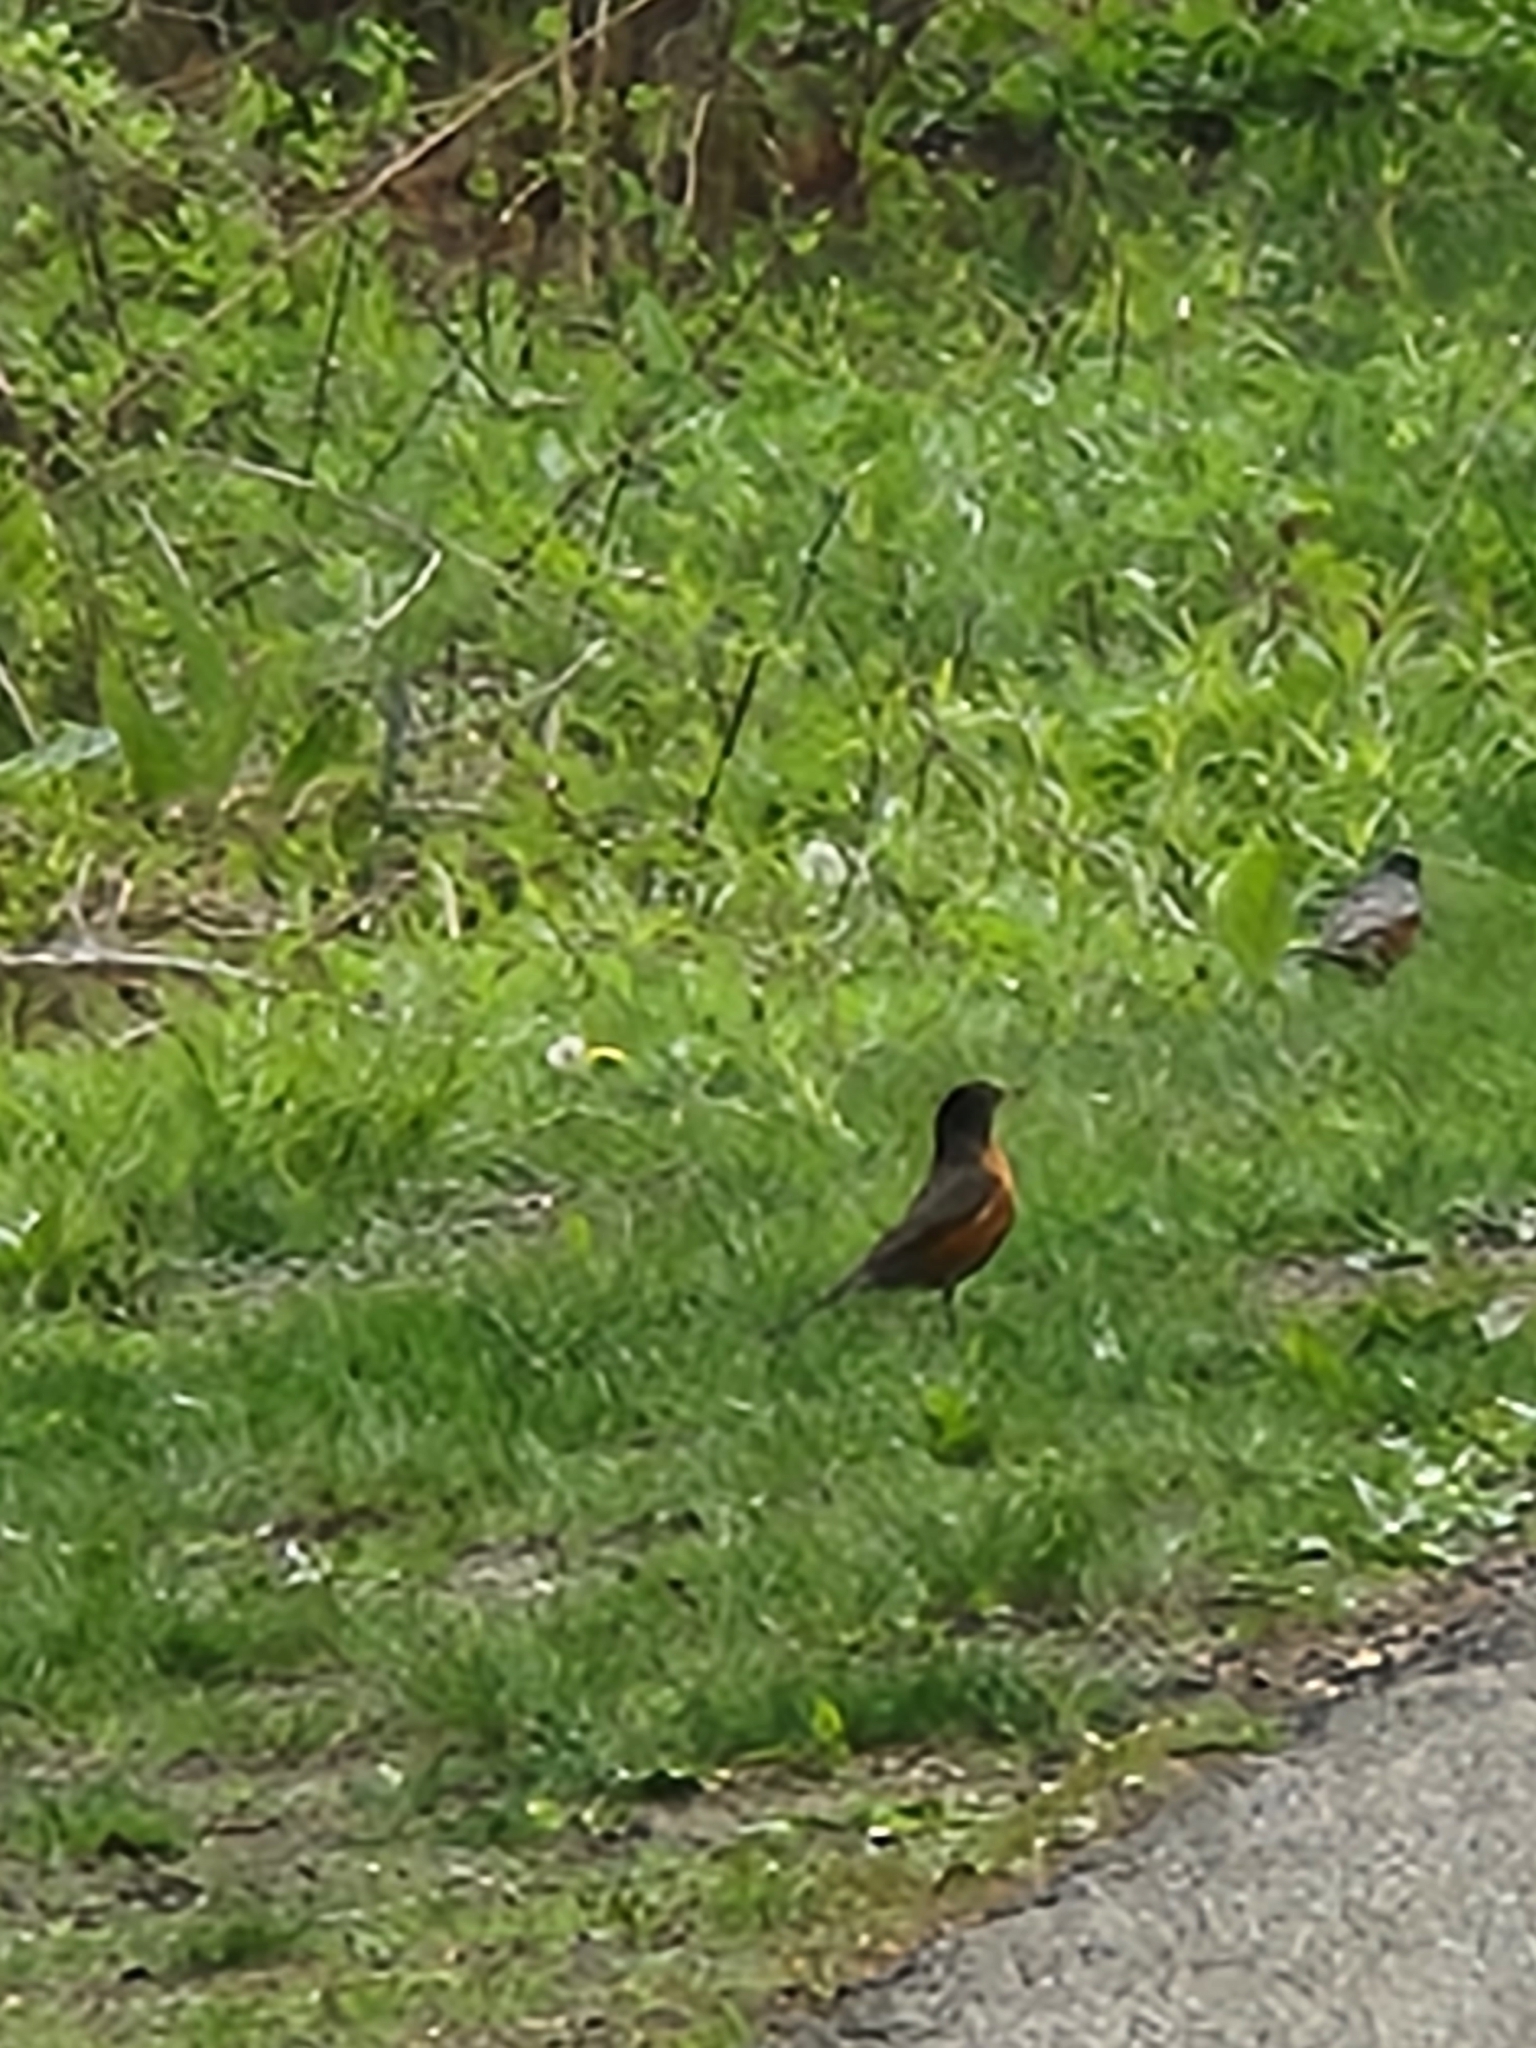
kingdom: Animalia
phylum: Chordata
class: Aves
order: Passeriformes
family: Turdidae
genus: Turdus
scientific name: Turdus migratorius
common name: American robin
